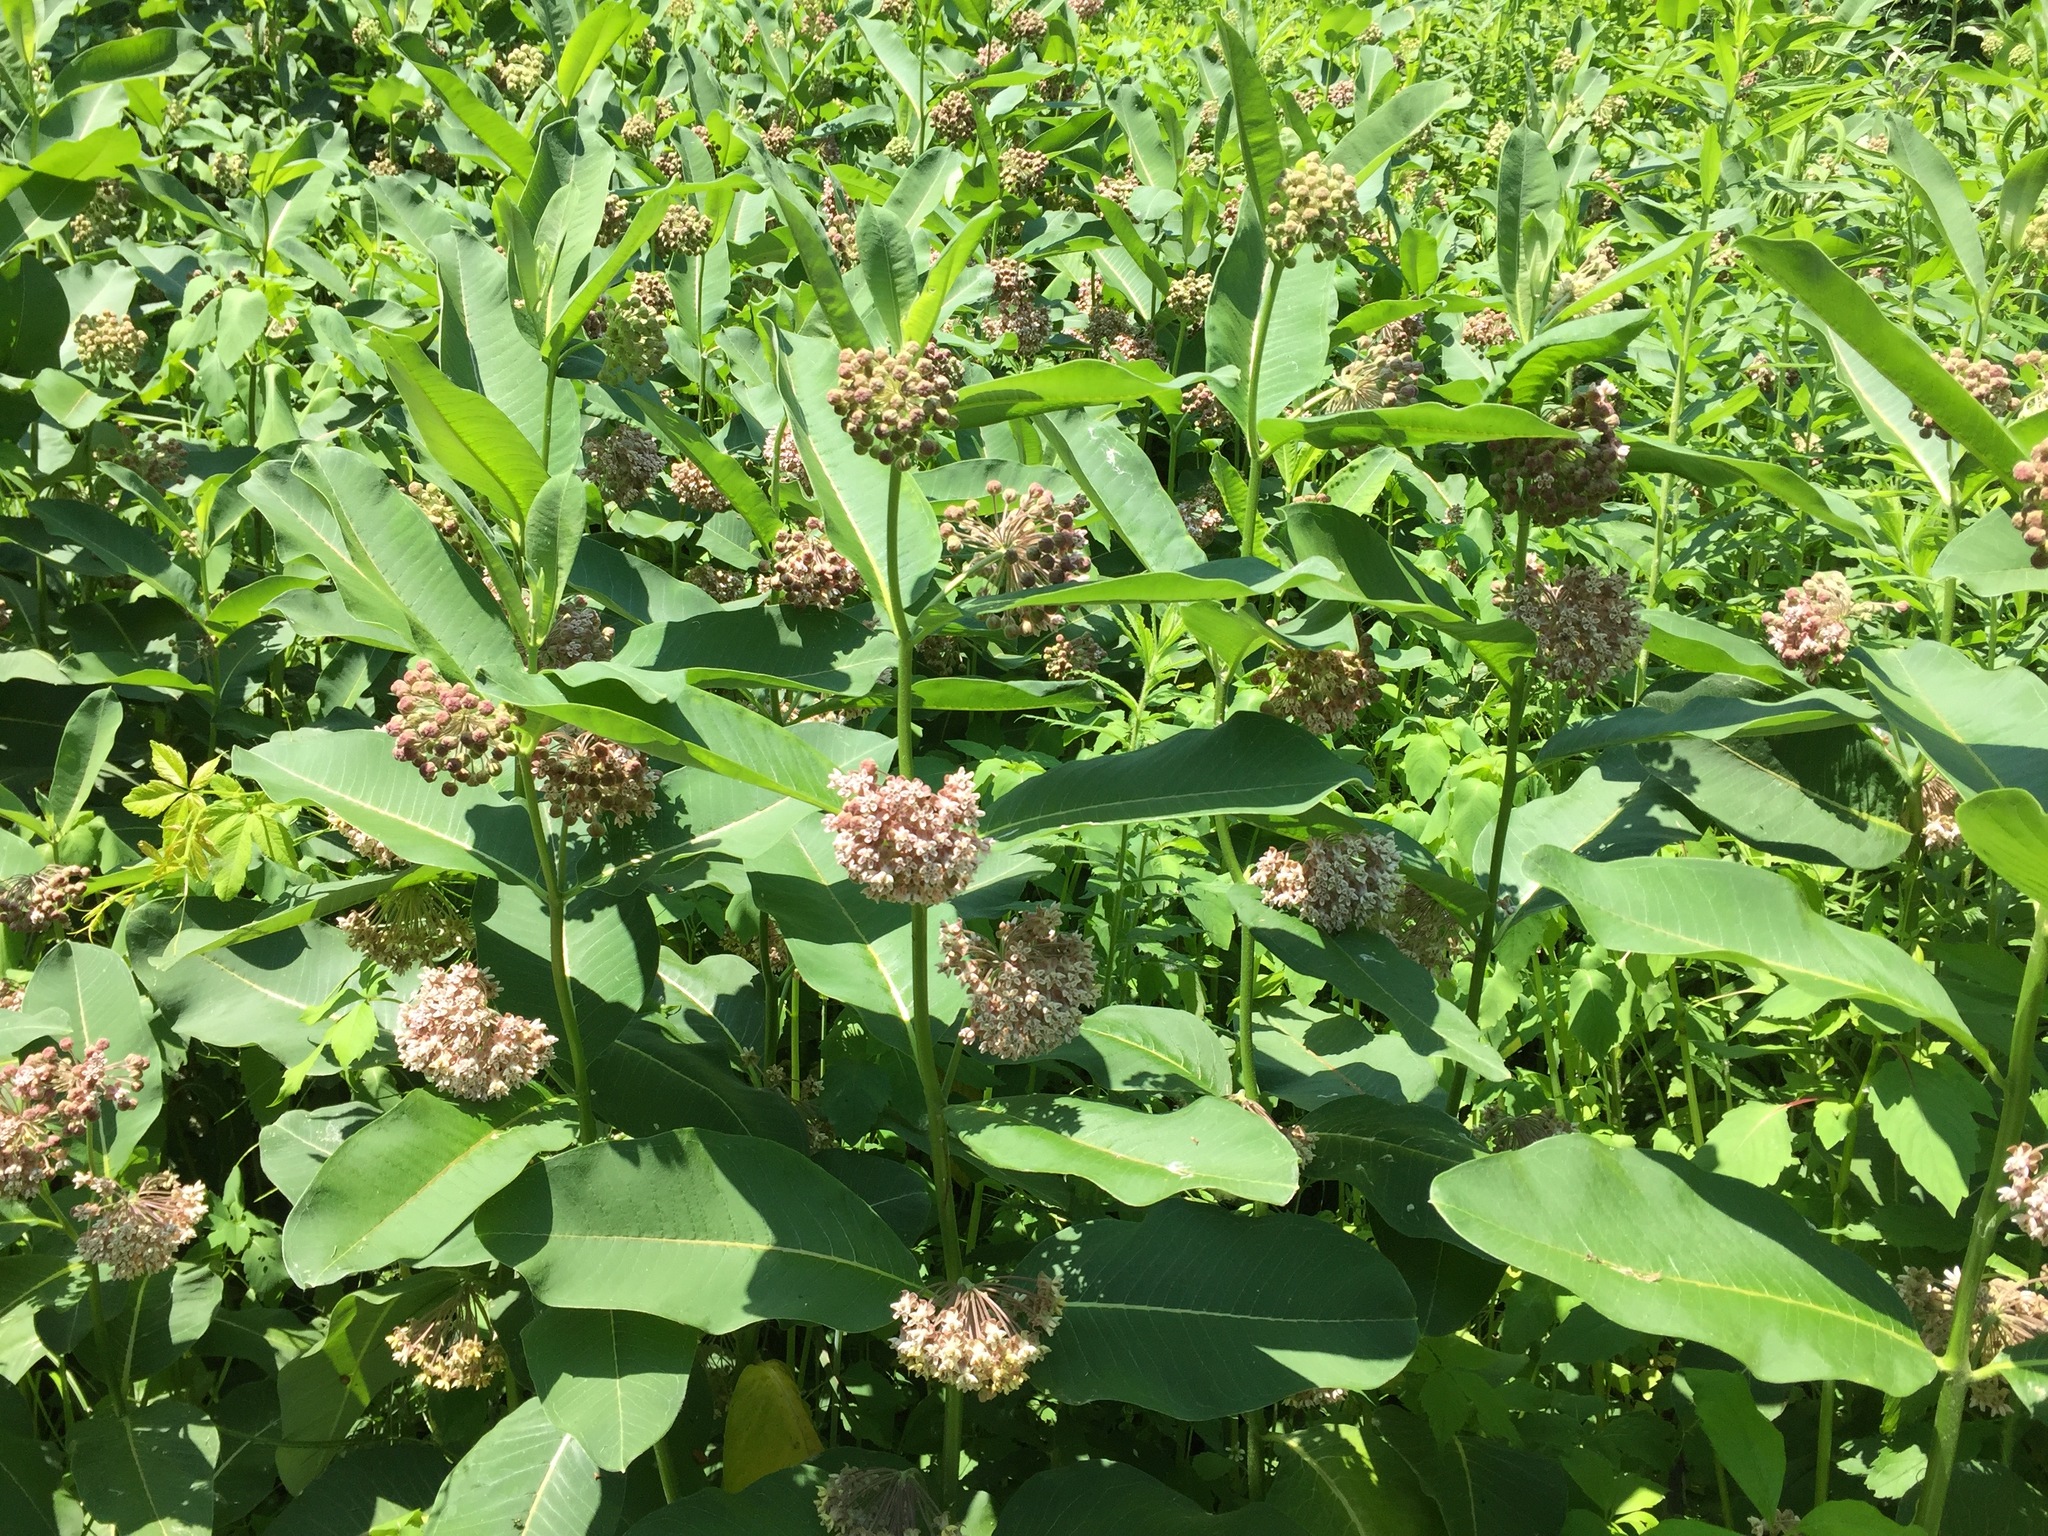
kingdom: Plantae
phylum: Tracheophyta
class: Magnoliopsida
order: Gentianales
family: Apocynaceae
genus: Asclepias
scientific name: Asclepias syriaca
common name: Common milkweed
